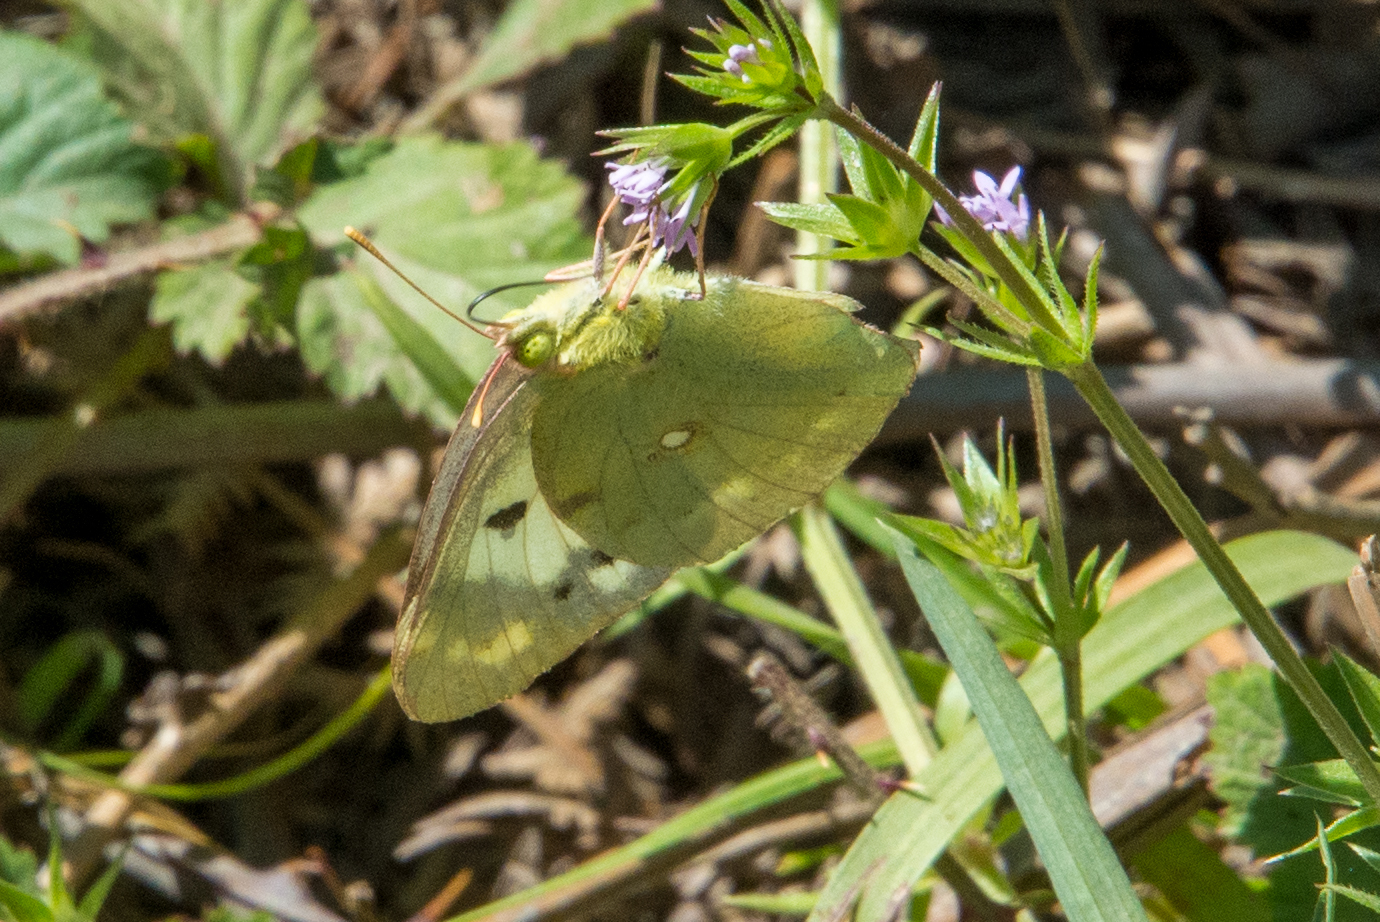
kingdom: Animalia
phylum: Arthropoda
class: Insecta
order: Lepidoptera
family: Pieridae
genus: Colias
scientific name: Colias croceus
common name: Clouded yellow
